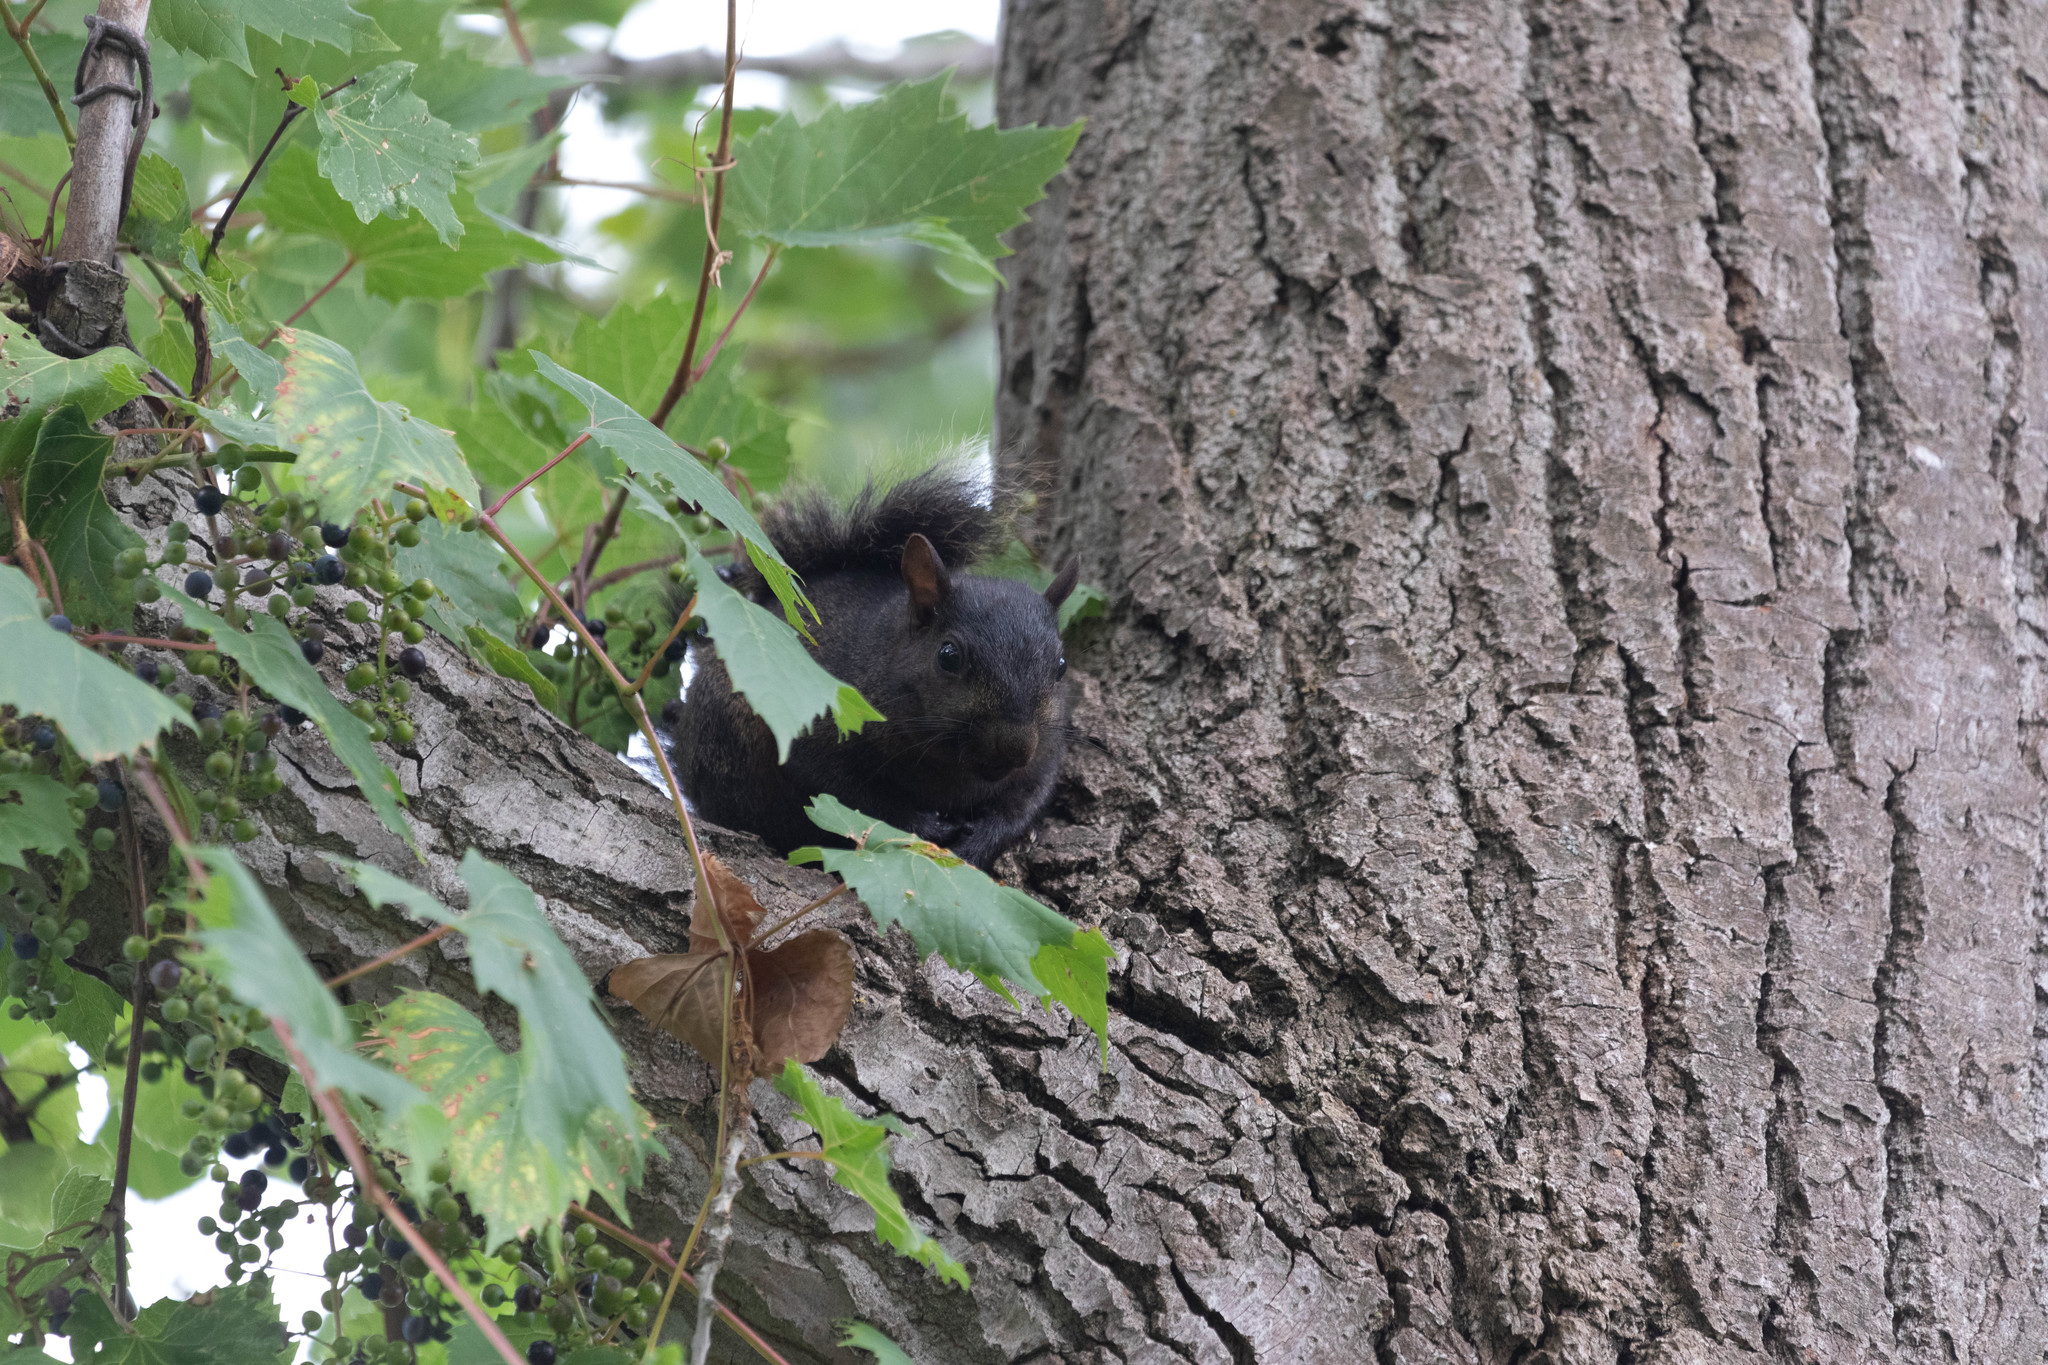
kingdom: Animalia
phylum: Chordata
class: Mammalia
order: Rodentia
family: Sciuridae
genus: Sciurus
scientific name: Sciurus carolinensis
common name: Eastern gray squirrel
